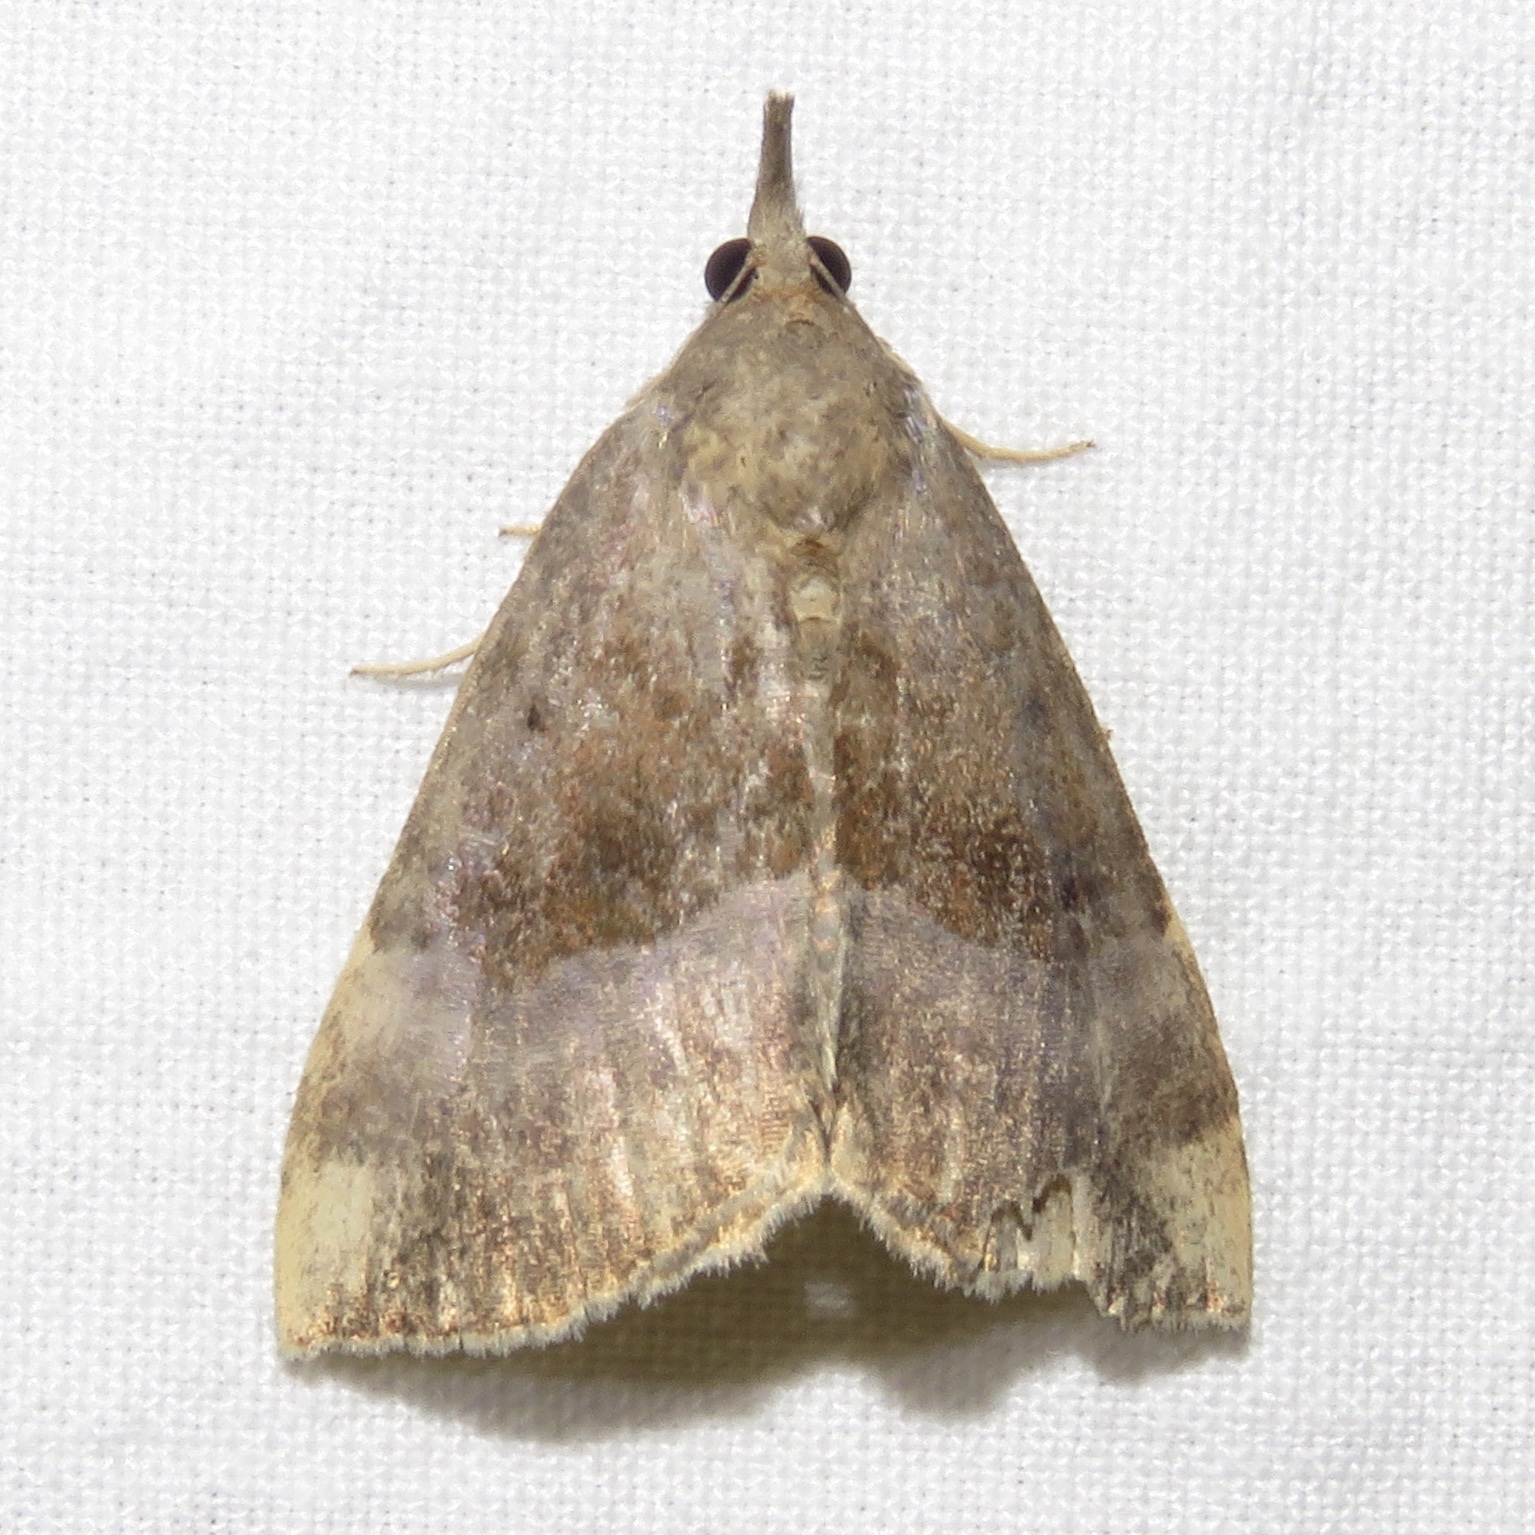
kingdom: Animalia
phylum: Arthropoda
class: Insecta
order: Lepidoptera
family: Erebidae
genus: Hypena
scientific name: Hypena madefactalis
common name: Gray-edged snout
